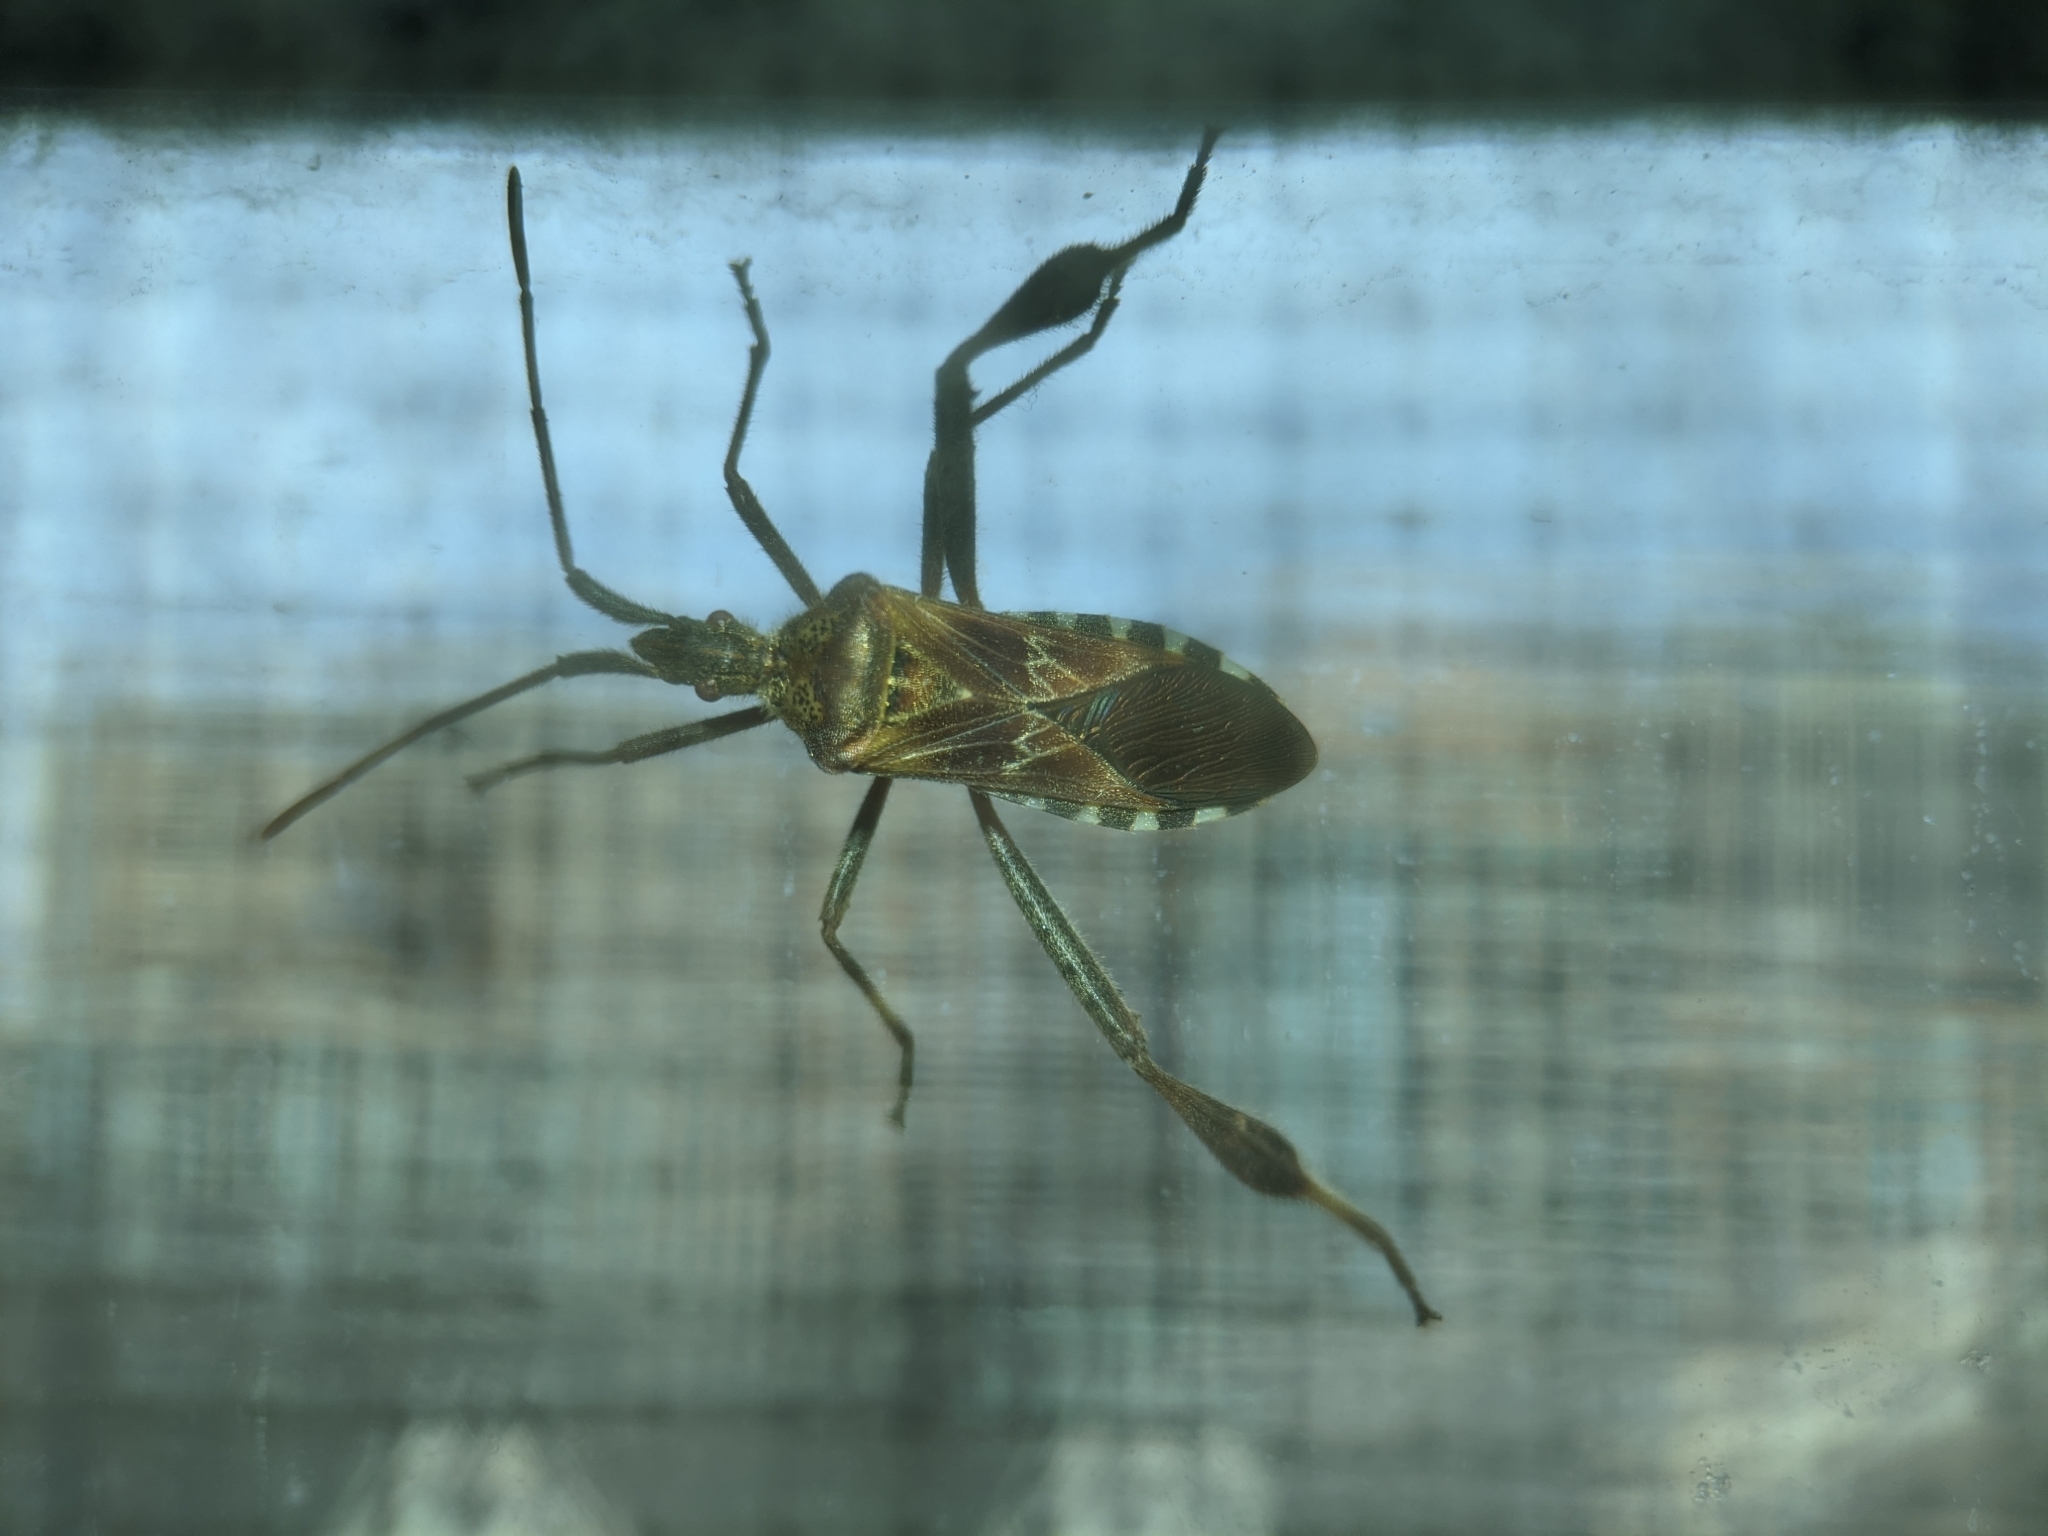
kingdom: Animalia
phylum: Arthropoda
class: Insecta
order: Hemiptera
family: Coreidae
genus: Leptoglossus
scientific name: Leptoglossus occidentalis
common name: Western conifer-seed bug
